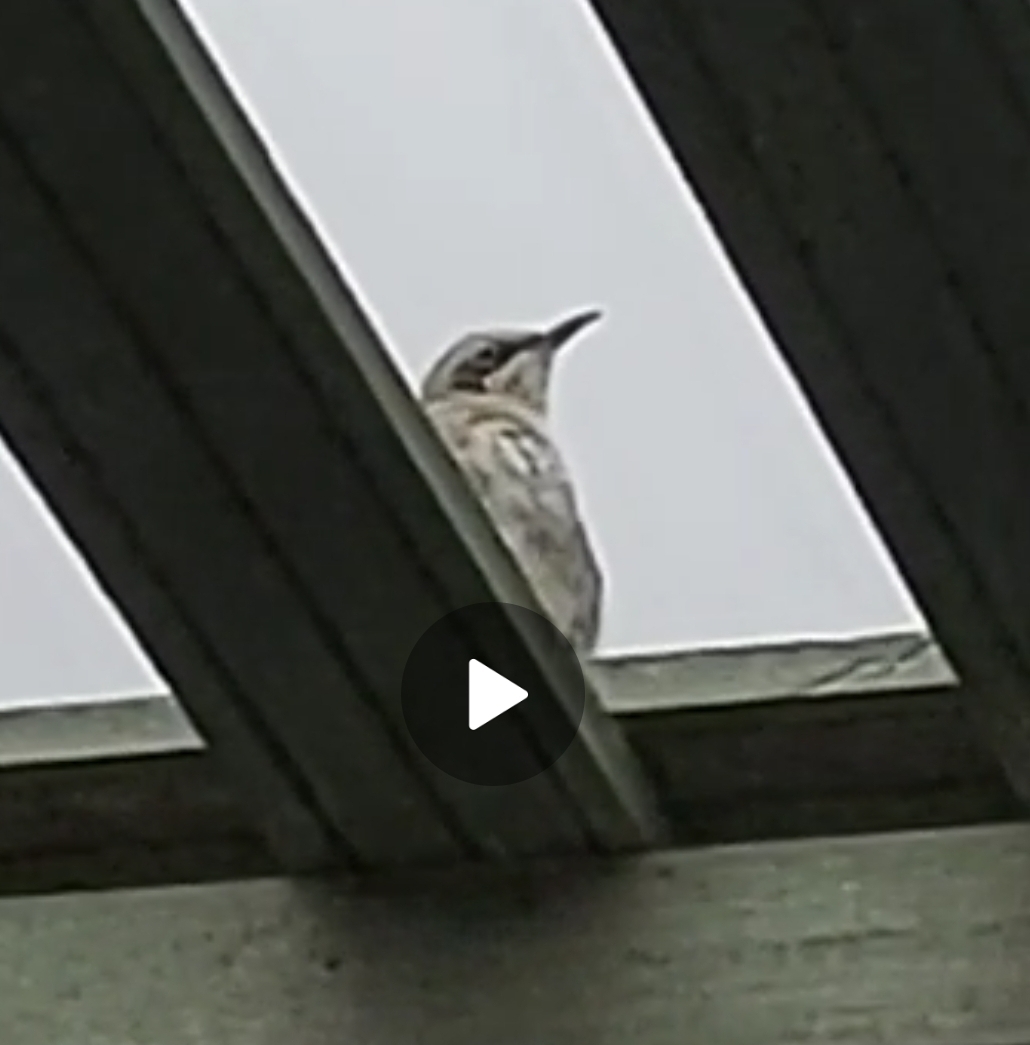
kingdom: Animalia
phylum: Chordata
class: Aves
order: Passeriformes
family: Mimidae
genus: Mimus
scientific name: Mimus melanotis
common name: San cristobal mockingbird
